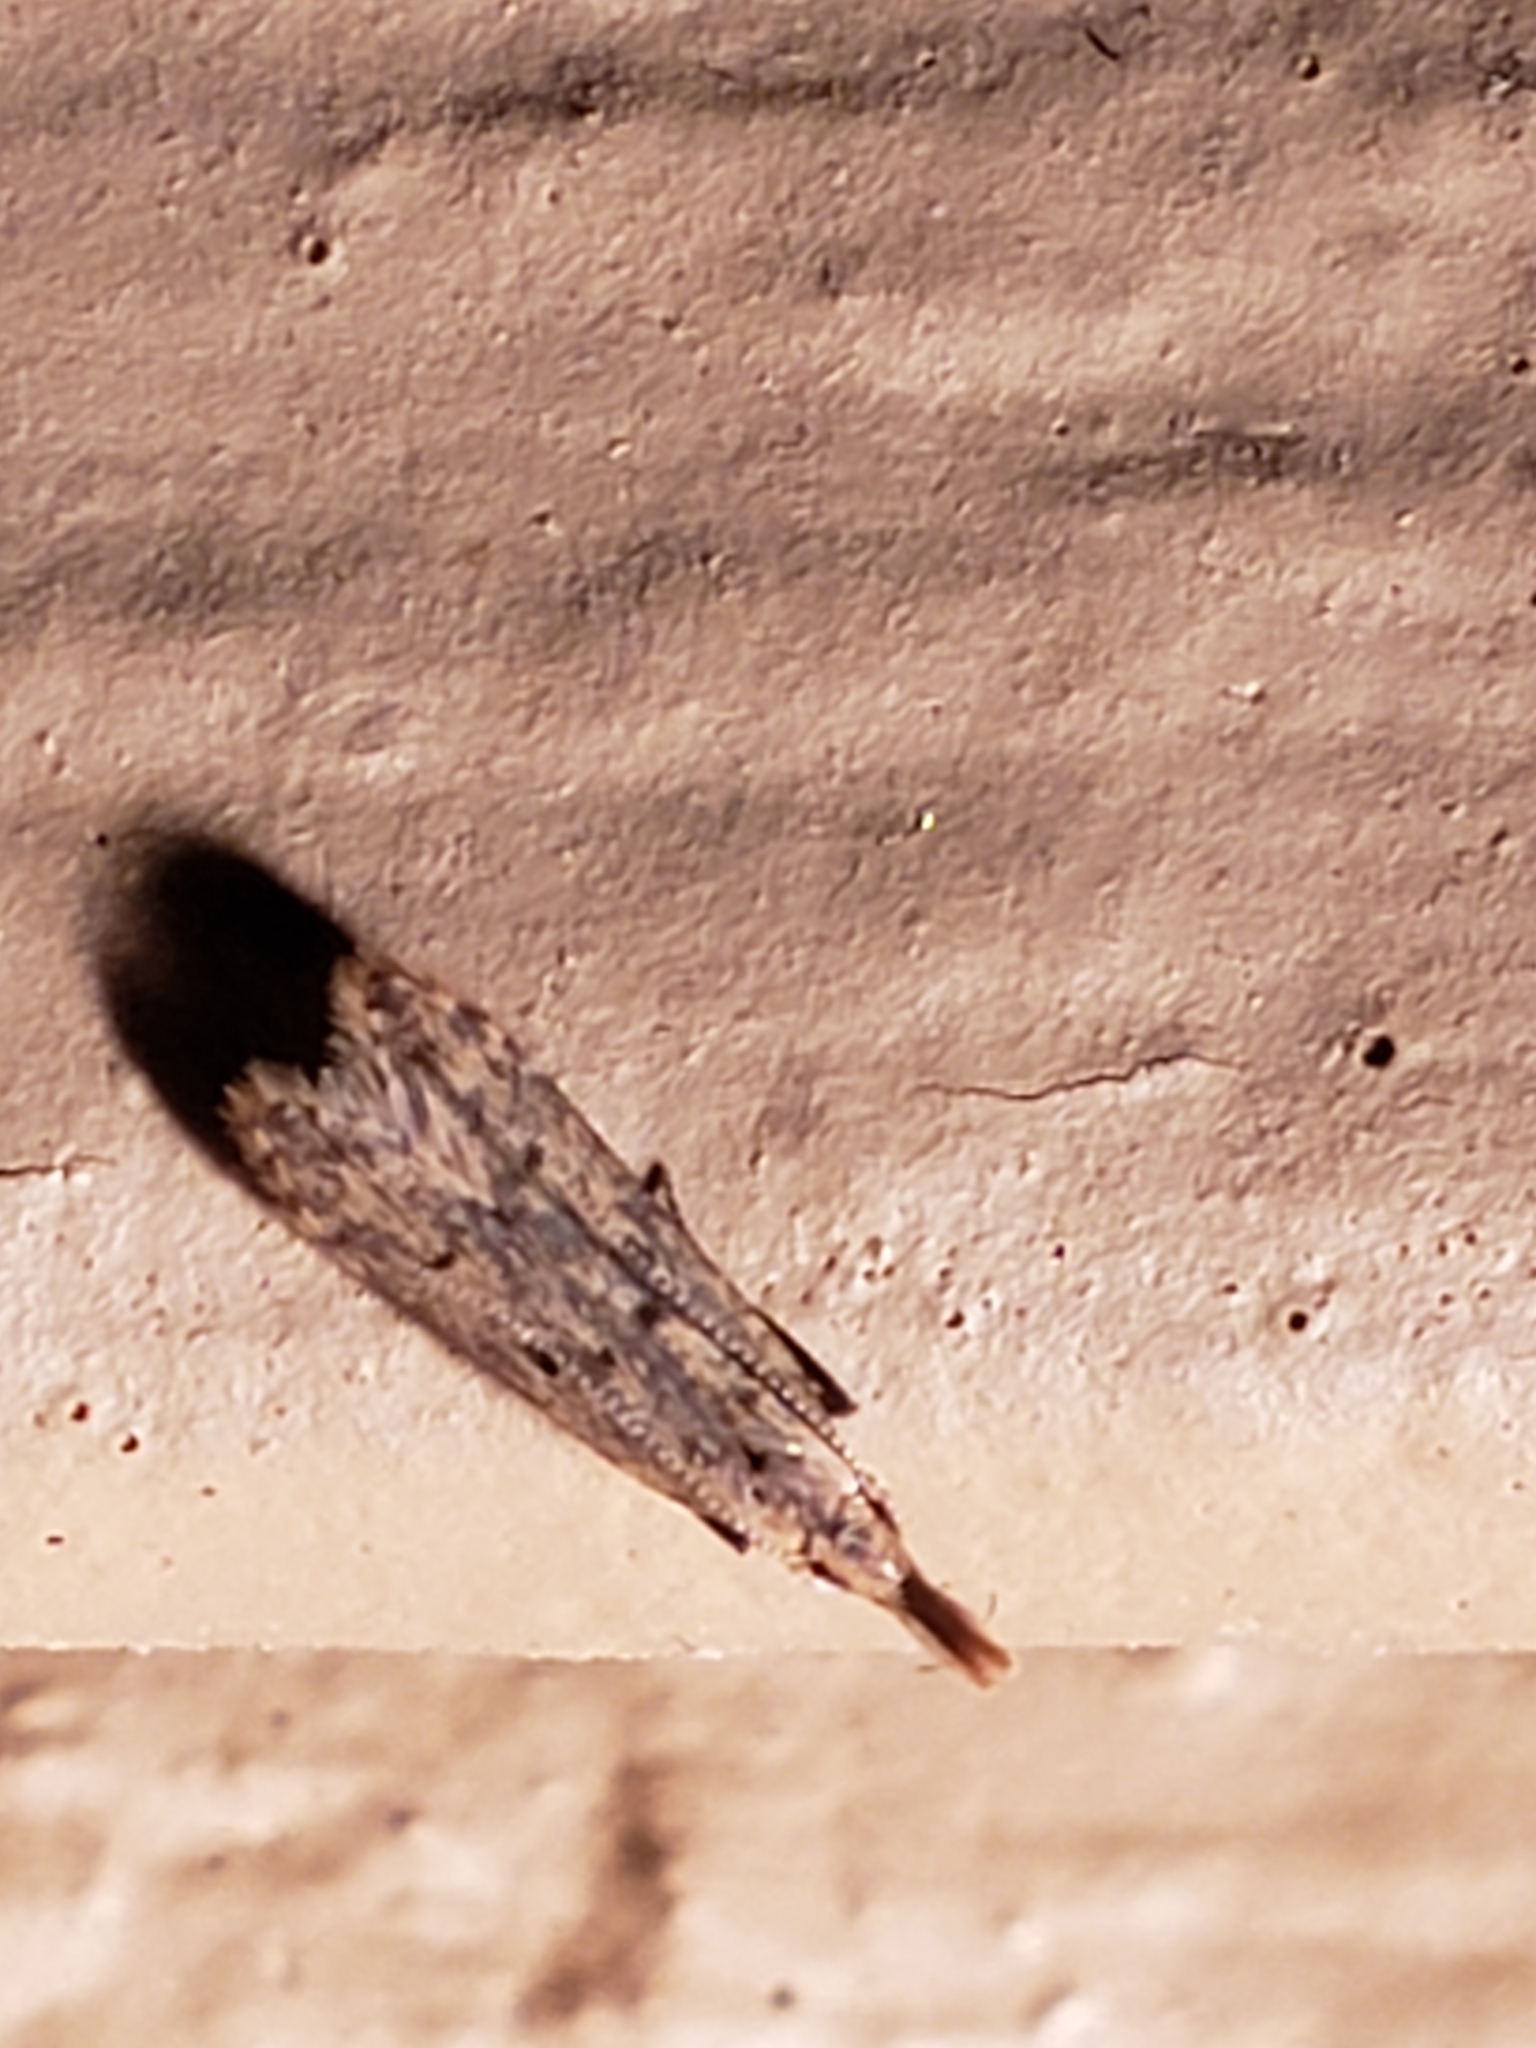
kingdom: Animalia
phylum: Arthropoda
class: Insecta
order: Lepidoptera
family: Gelechiidae
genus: Dichomeris
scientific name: Dichomeris punctipennella
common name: Many-spotted dichomeris moth
